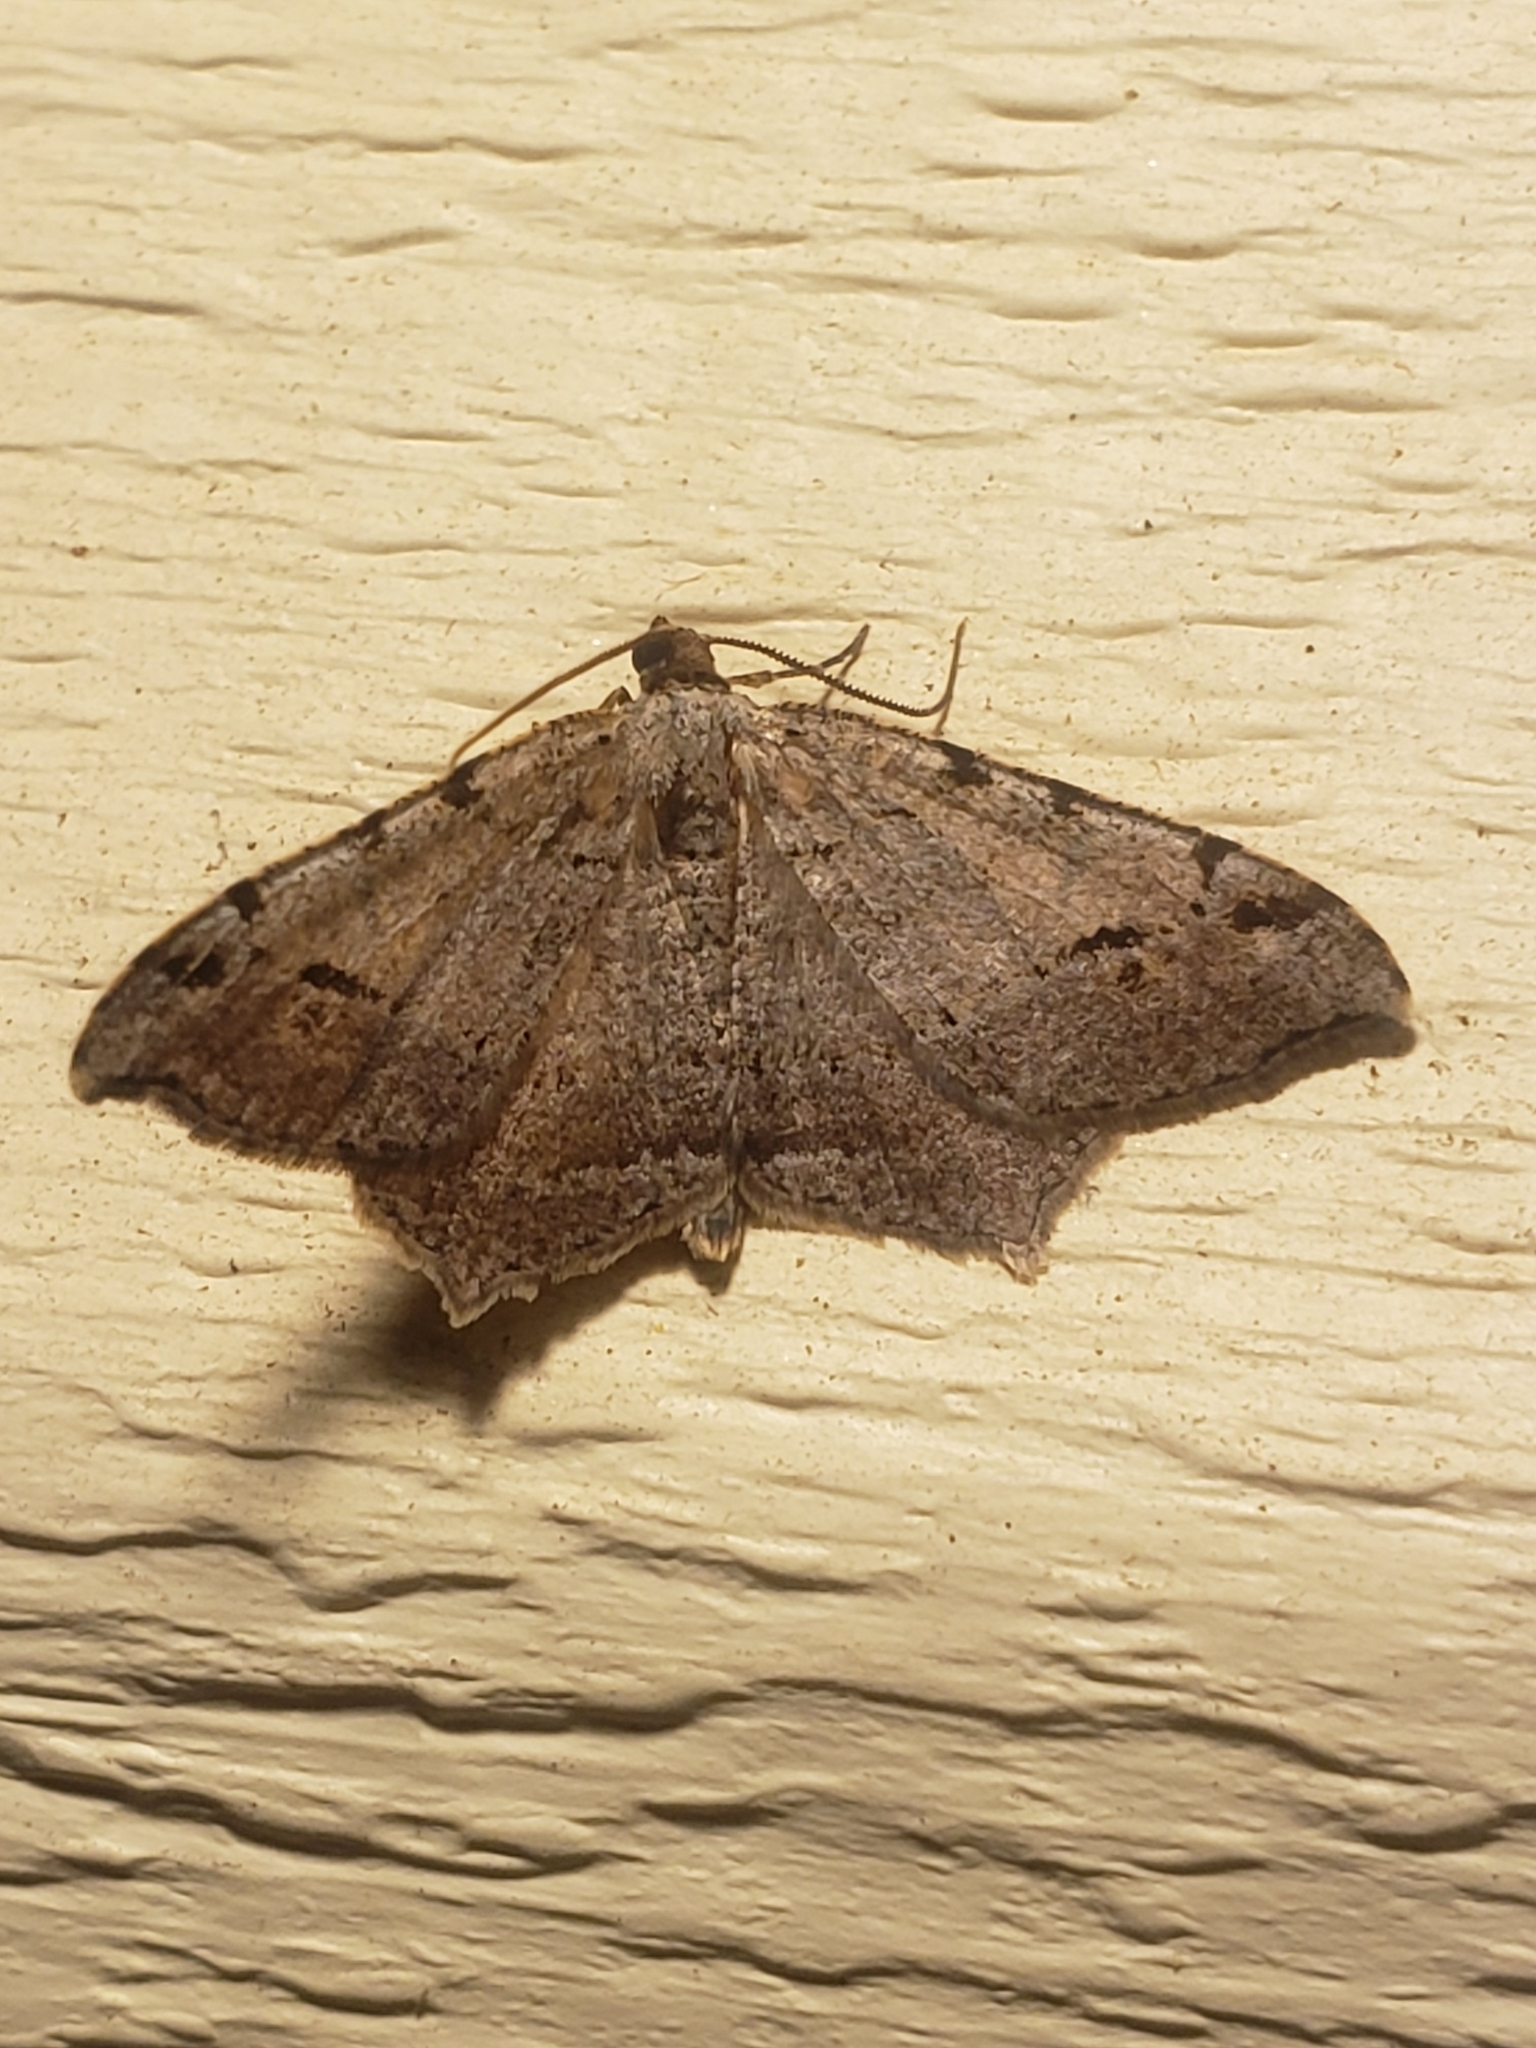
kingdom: Animalia
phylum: Arthropoda
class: Insecta
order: Lepidoptera
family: Geometridae
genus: Macaria
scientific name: Macaria bicolorata
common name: Dingy angle
